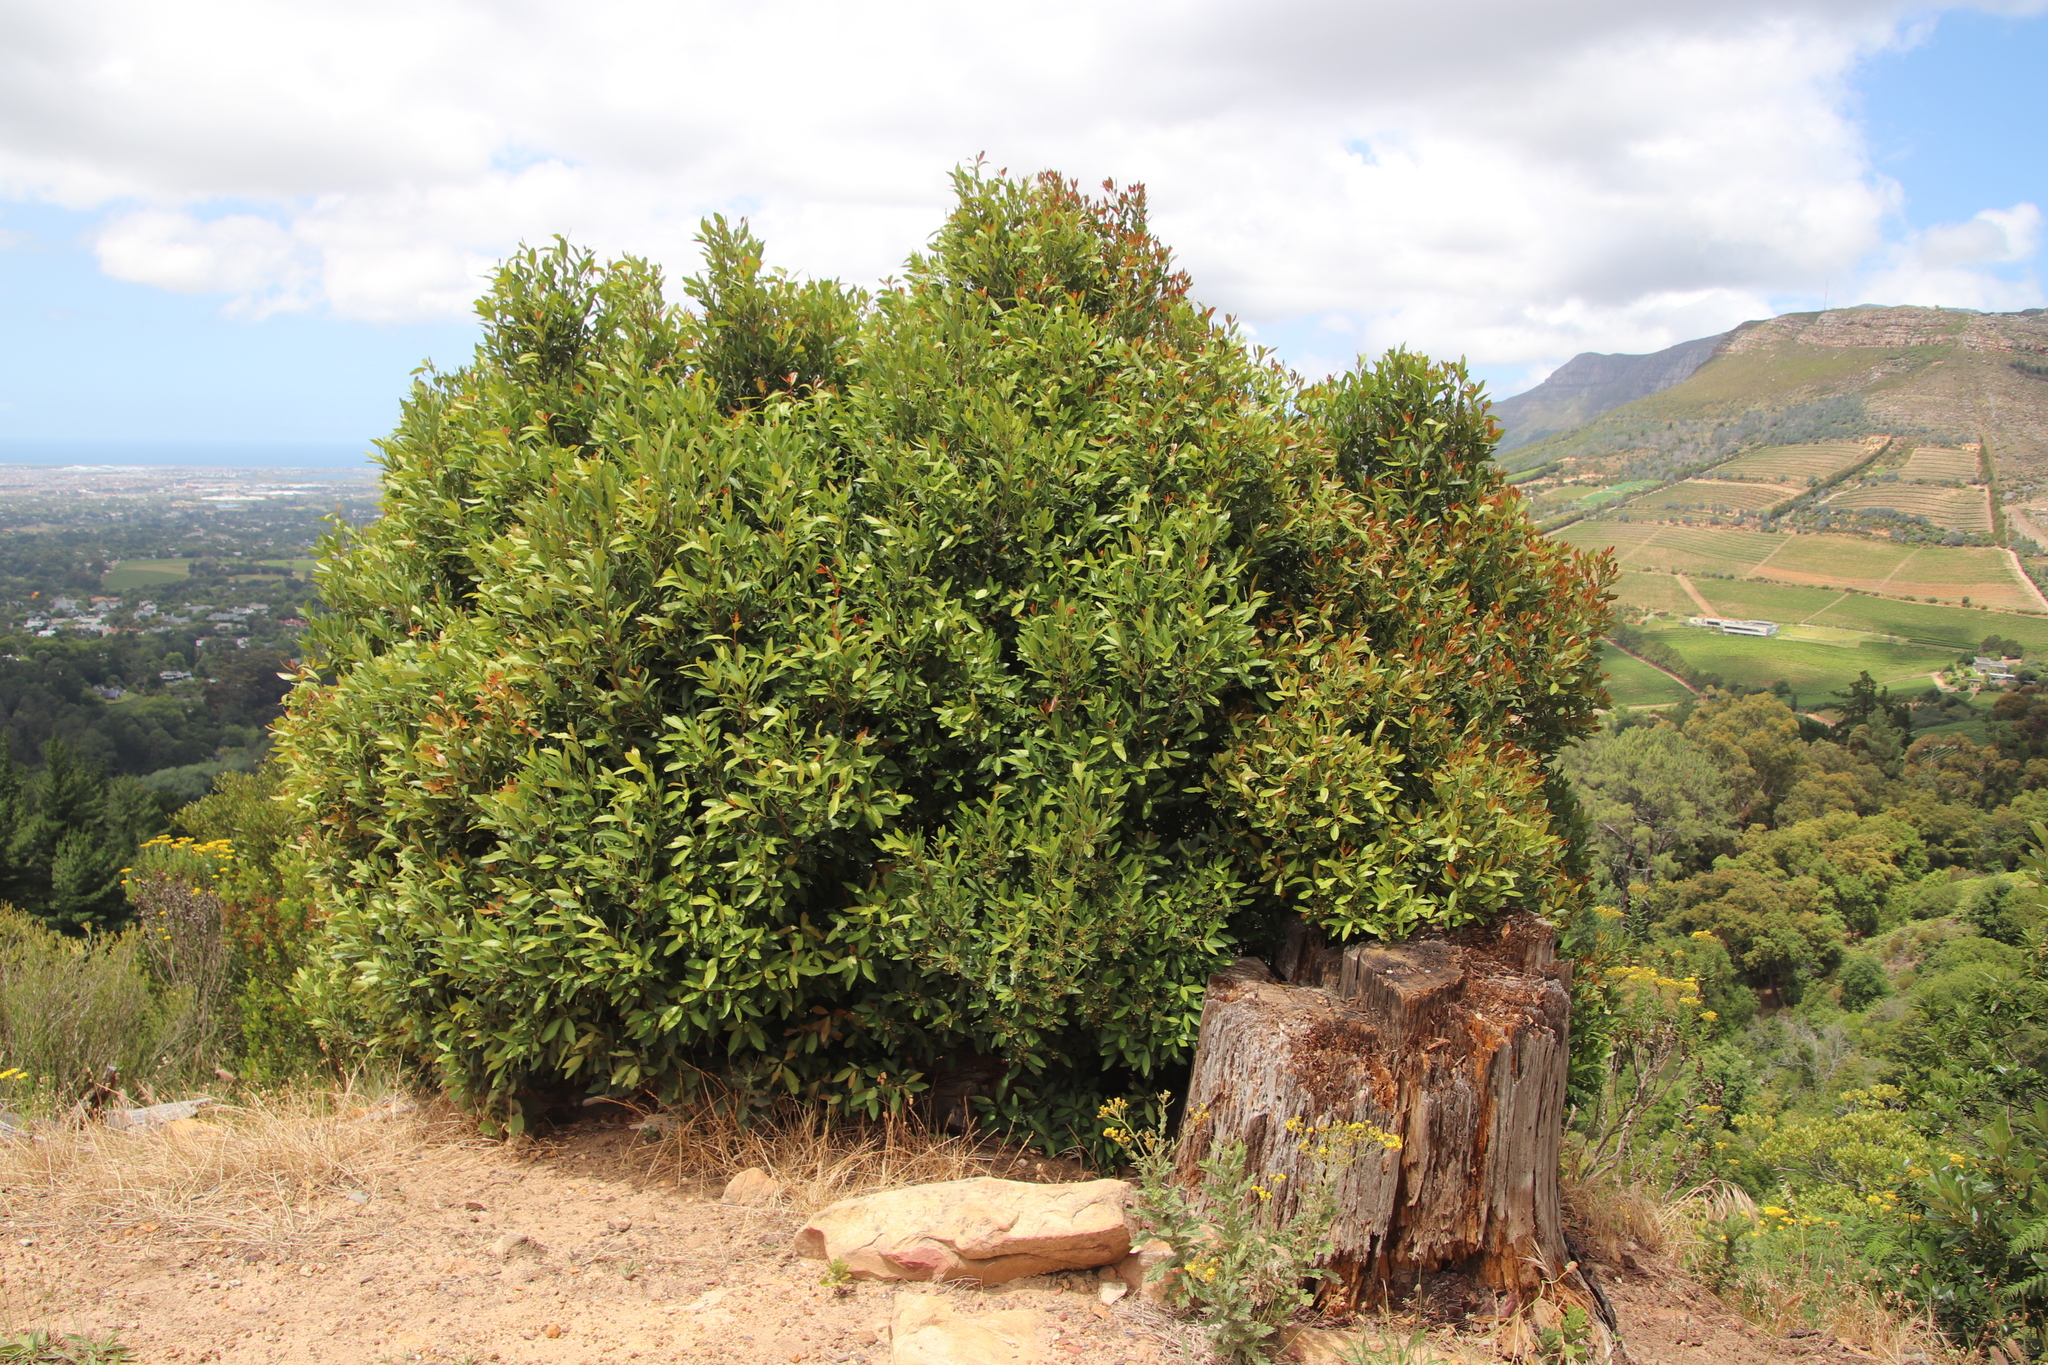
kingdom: Plantae
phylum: Tracheophyta
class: Magnoliopsida
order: Celastrales
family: Celastraceae
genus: Elaeodendron
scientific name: Elaeodendron schinoides
